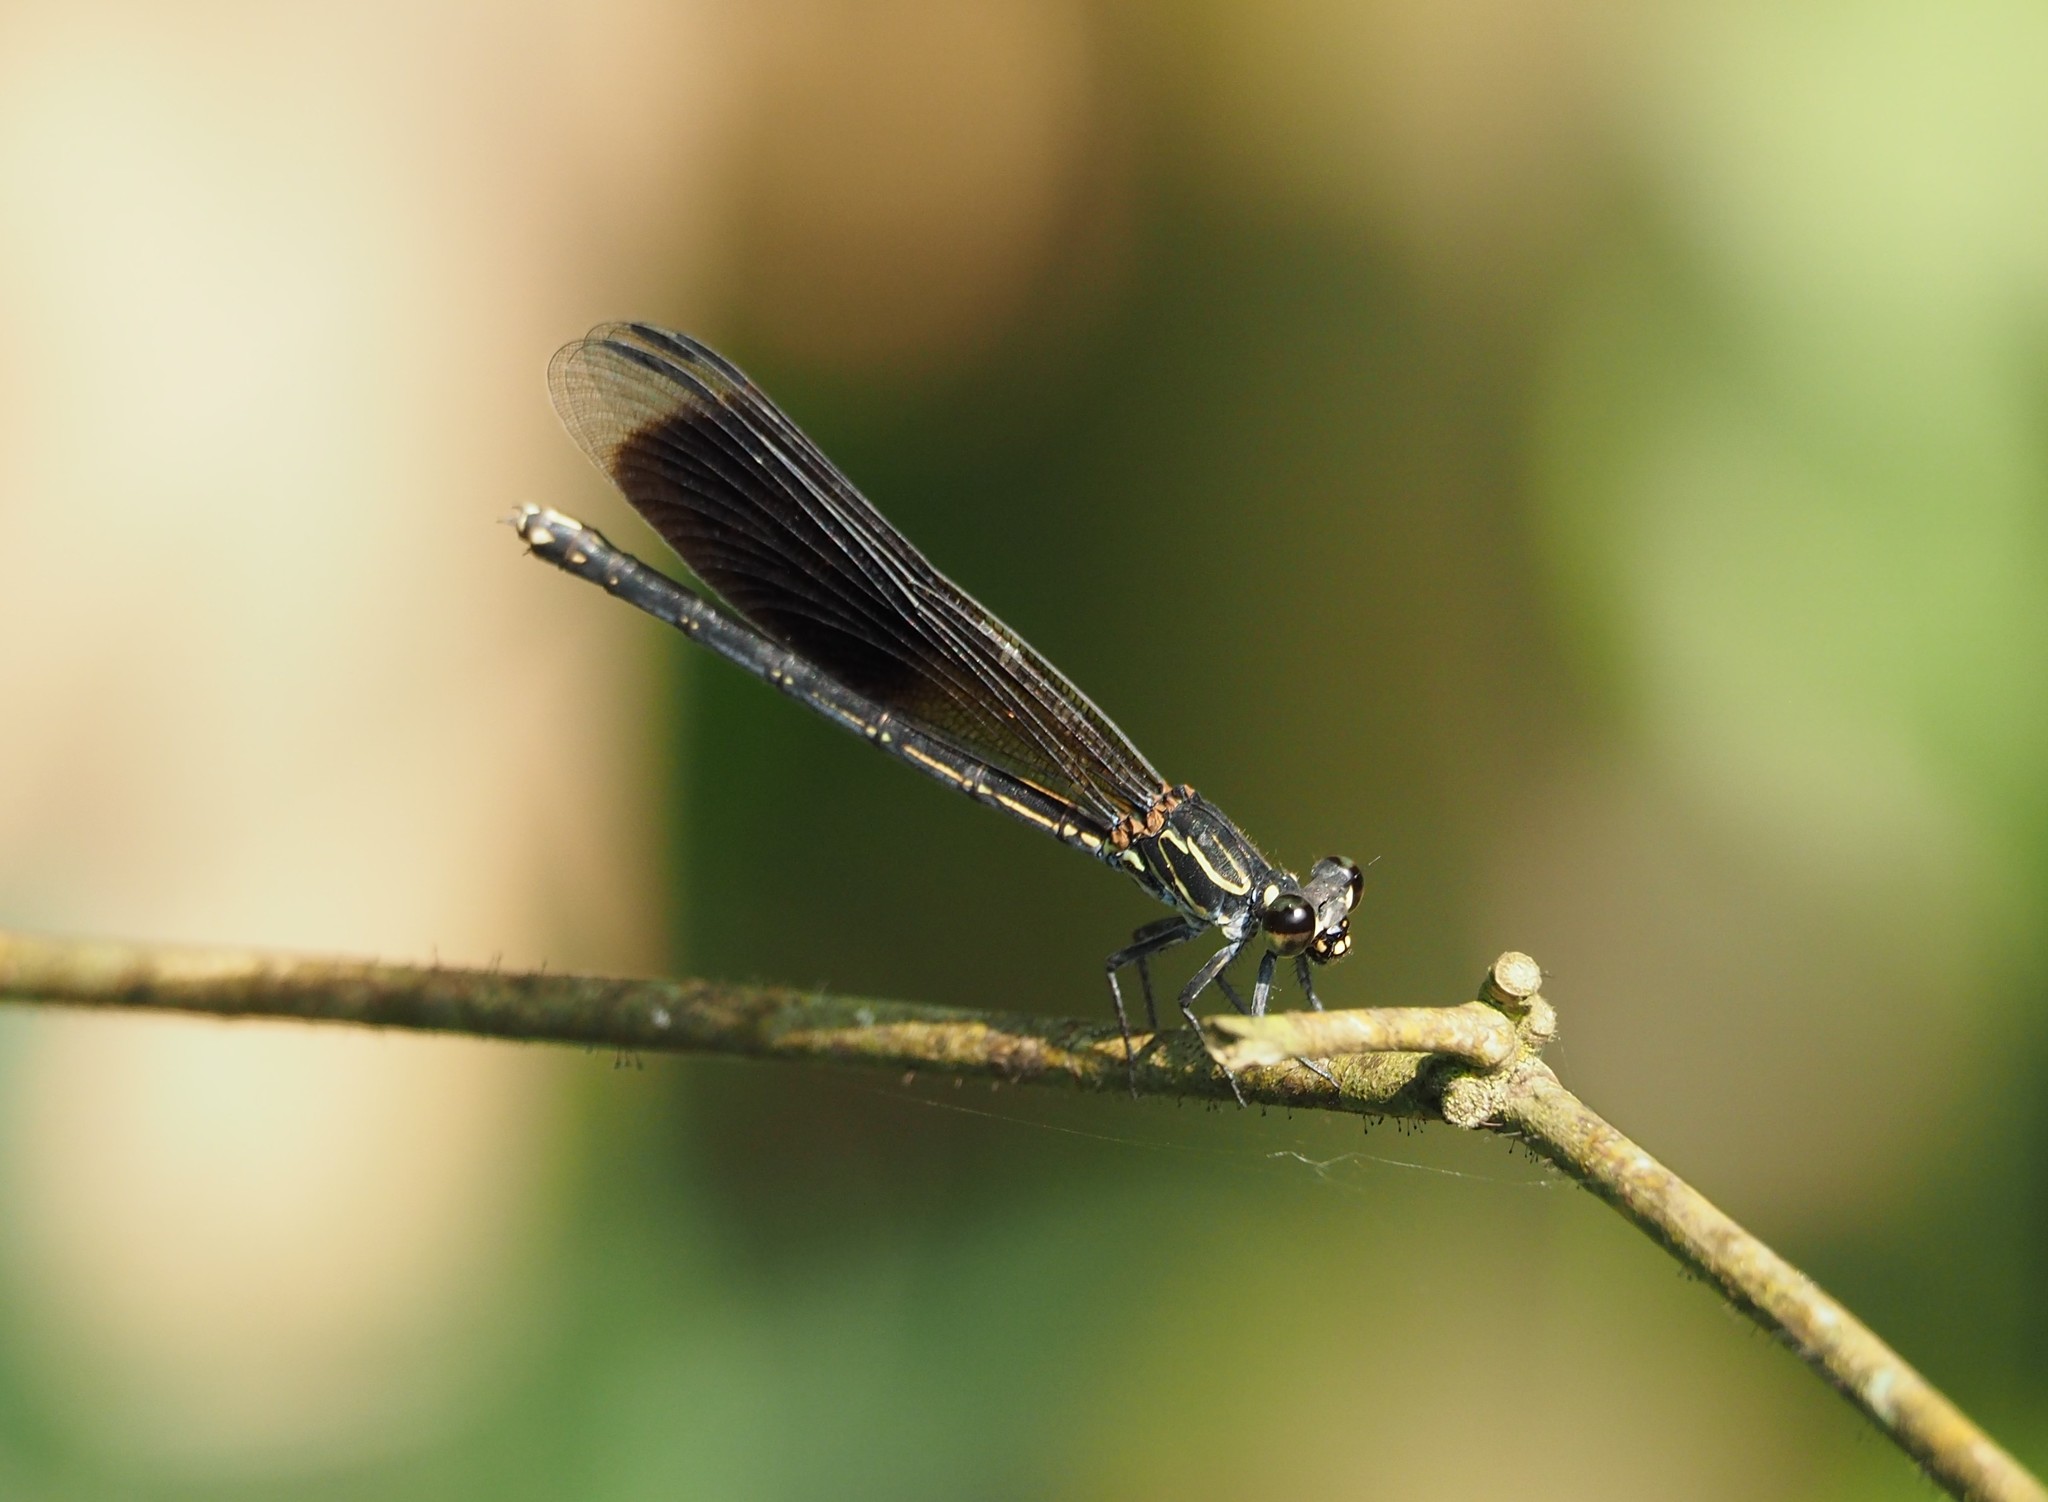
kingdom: Animalia
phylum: Arthropoda
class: Insecta
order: Odonata
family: Euphaeidae
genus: Euphaea
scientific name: Euphaea formosa
